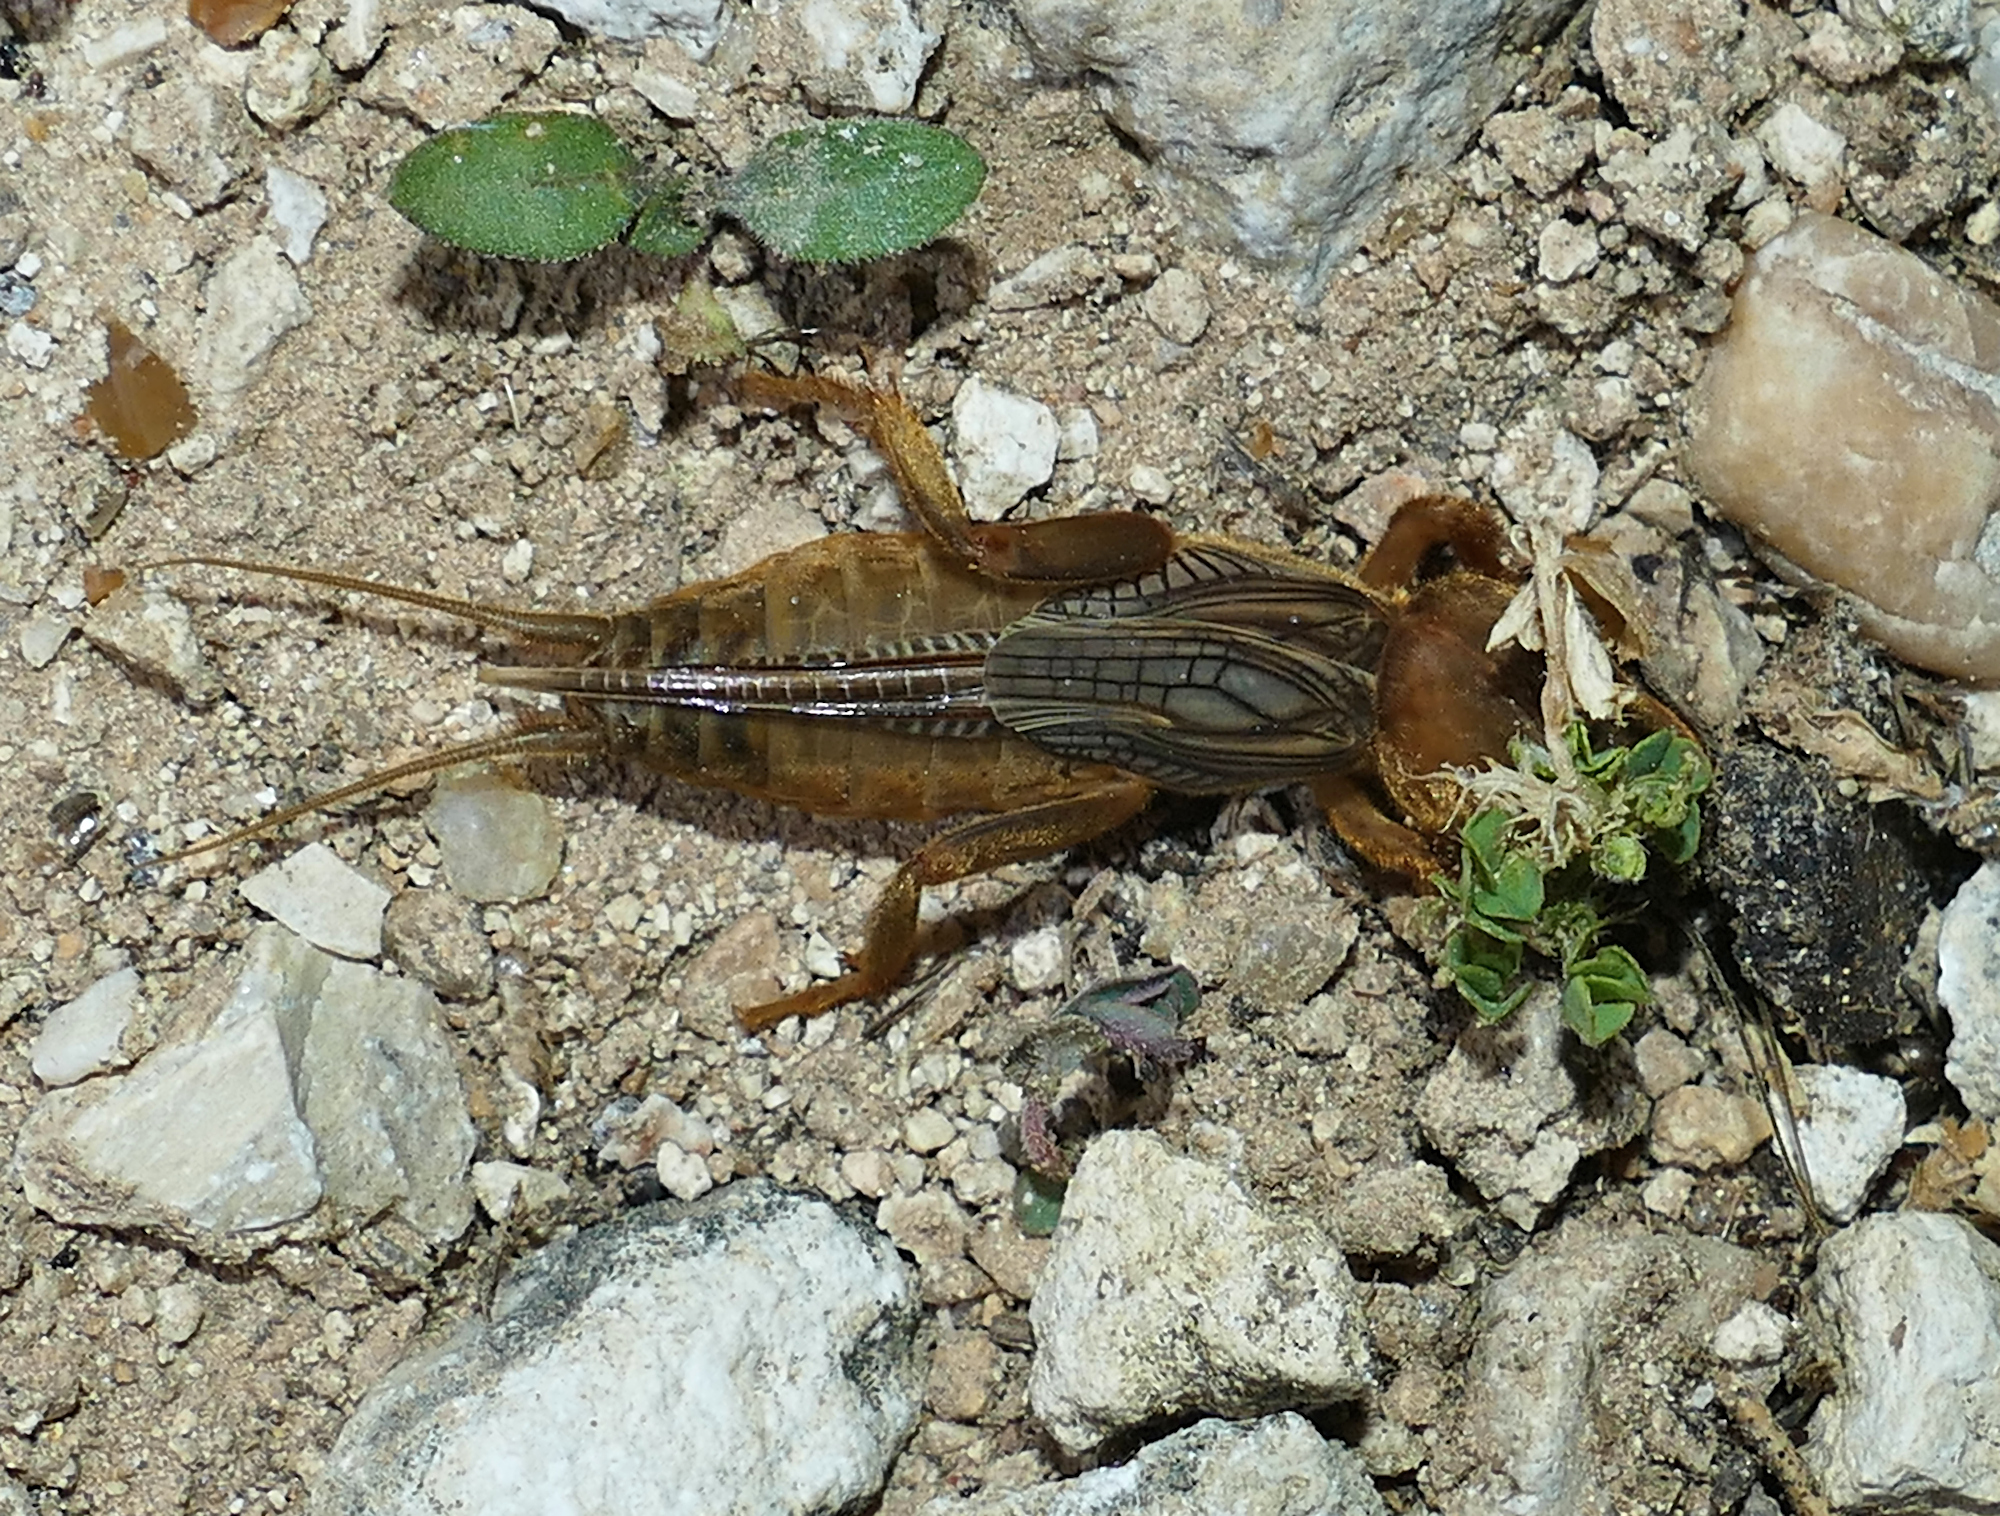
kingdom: Animalia
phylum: Arthropoda
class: Insecta
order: Orthoptera
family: Gryllotalpidae
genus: Neocurtilla
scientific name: Neocurtilla hexadactyla
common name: Northern mole cricket
